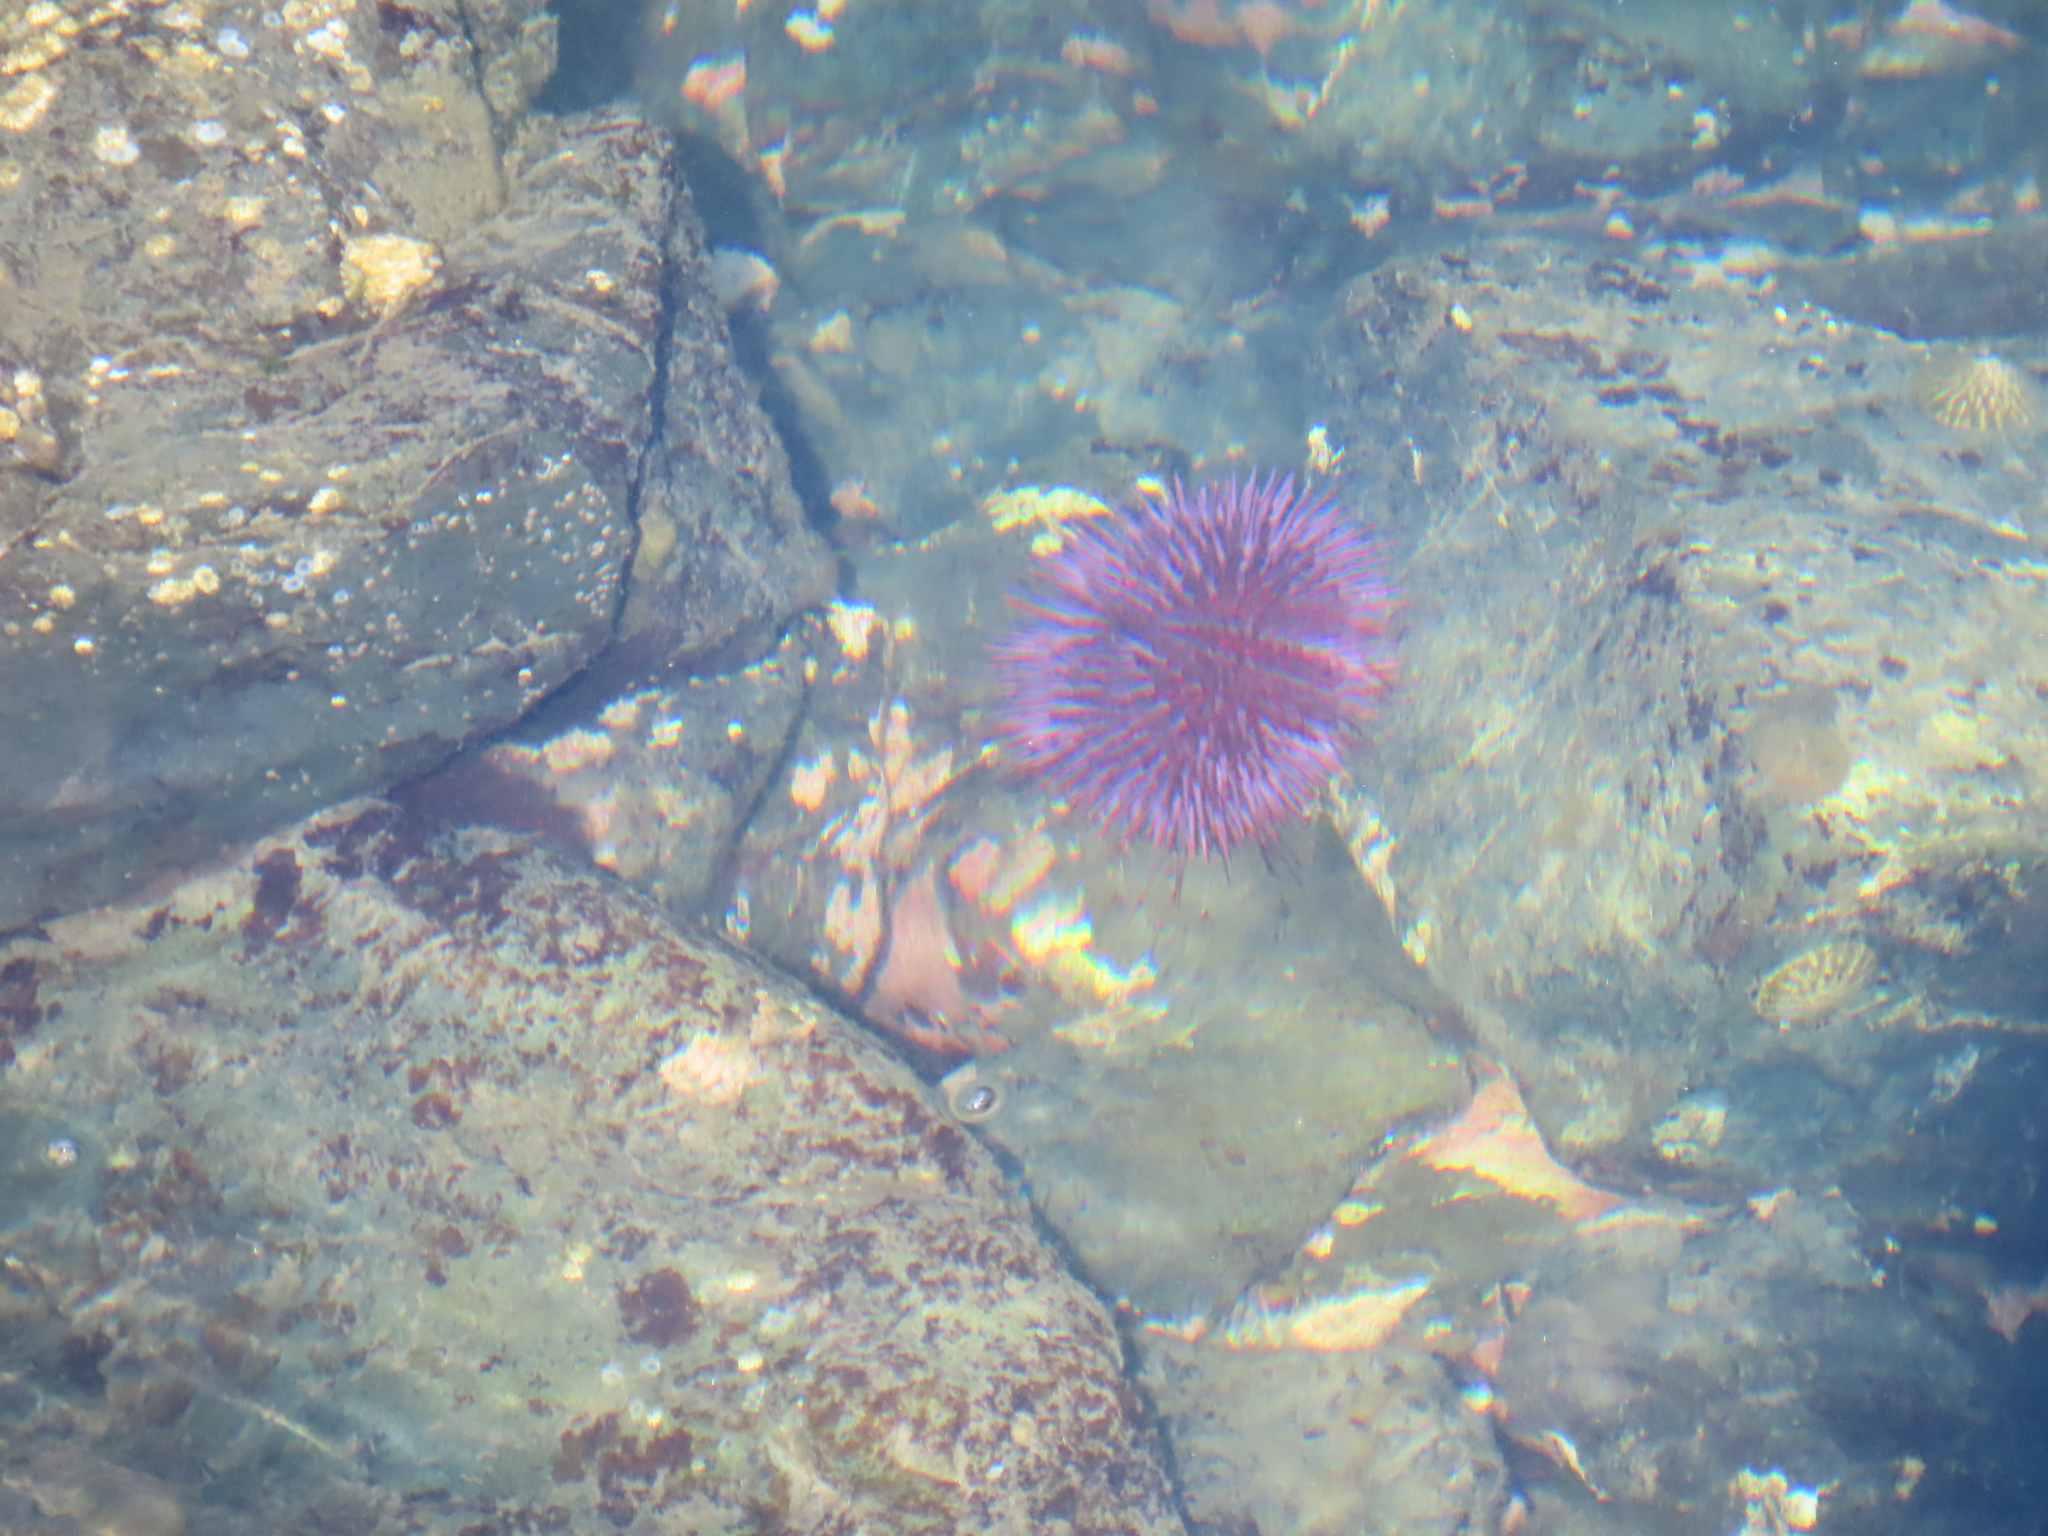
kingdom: Animalia
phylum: Echinodermata
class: Echinoidea
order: Camarodonta
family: Strongylocentrotidae
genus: Strongylocentrotus
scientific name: Strongylocentrotus purpuratus
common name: Purple sea urchin
